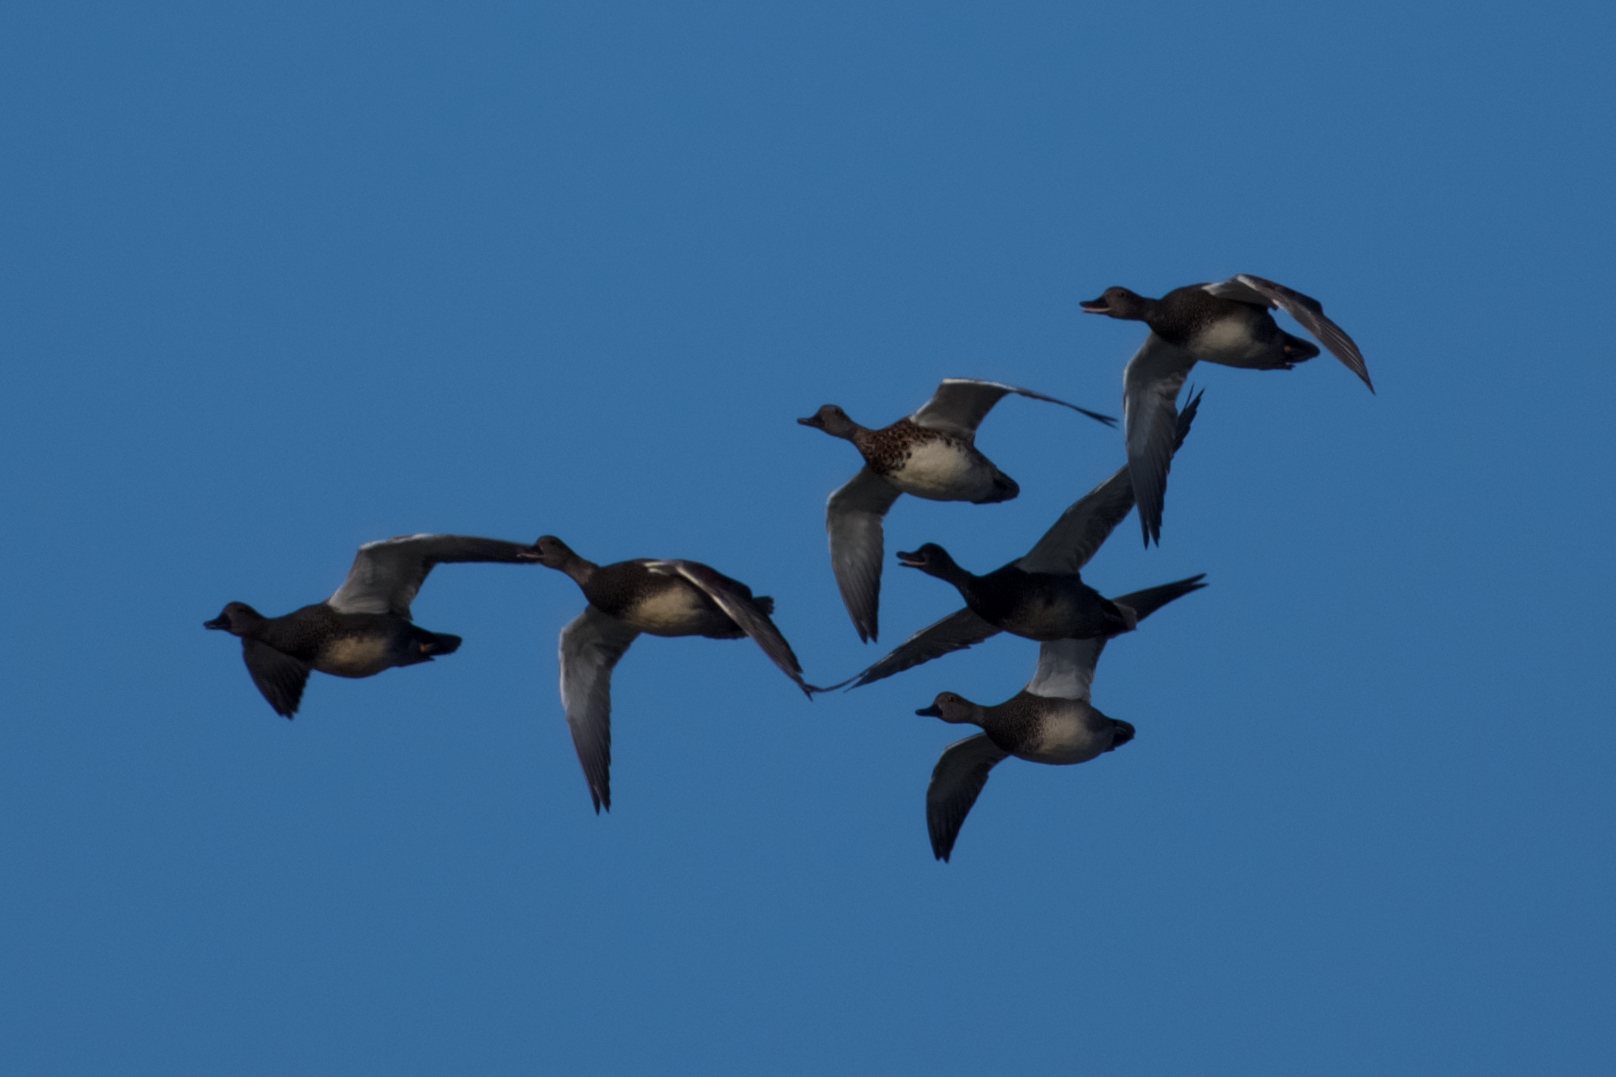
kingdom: Animalia
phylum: Chordata
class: Aves
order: Anseriformes
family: Anatidae
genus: Mareca
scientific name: Mareca strepera
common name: Gadwall
